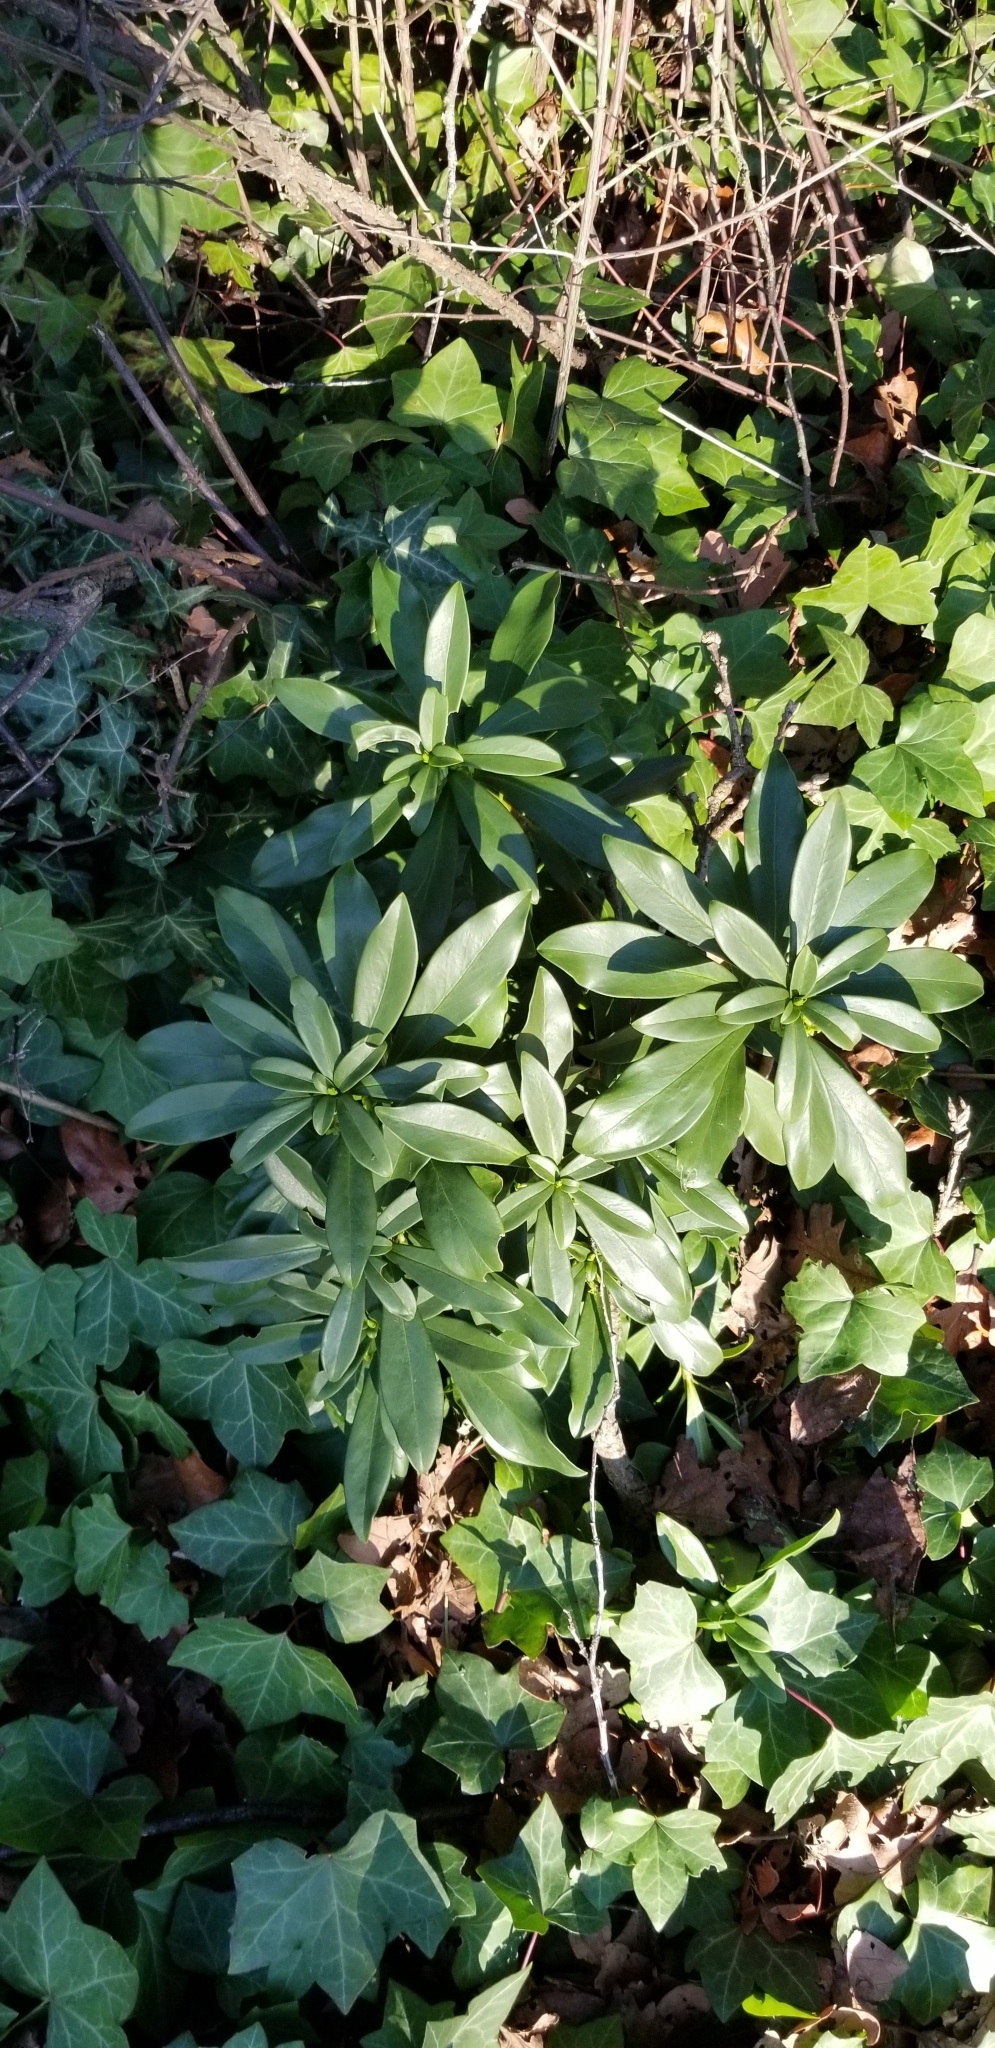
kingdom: Plantae
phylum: Tracheophyta
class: Magnoliopsida
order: Malvales
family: Thymelaeaceae
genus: Daphne
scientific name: Daphne laureola
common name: Spurge-laurel
